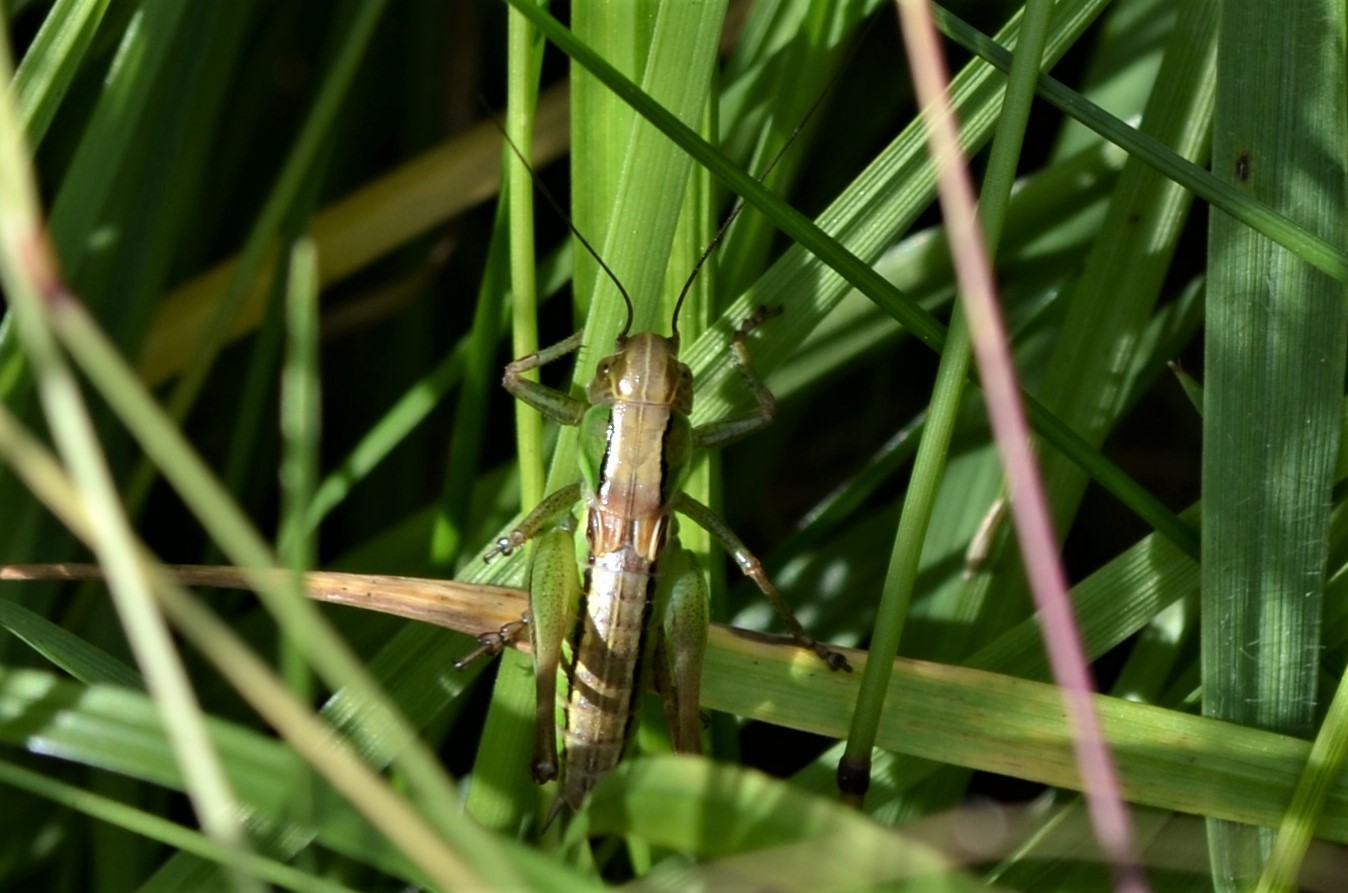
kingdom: Animalia
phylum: Arthropoda
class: Insecta
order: Orthoptera
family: Tettigoniidae
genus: Roeseliana
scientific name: Roeseliana roeselii
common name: Roesel's bush cricket
